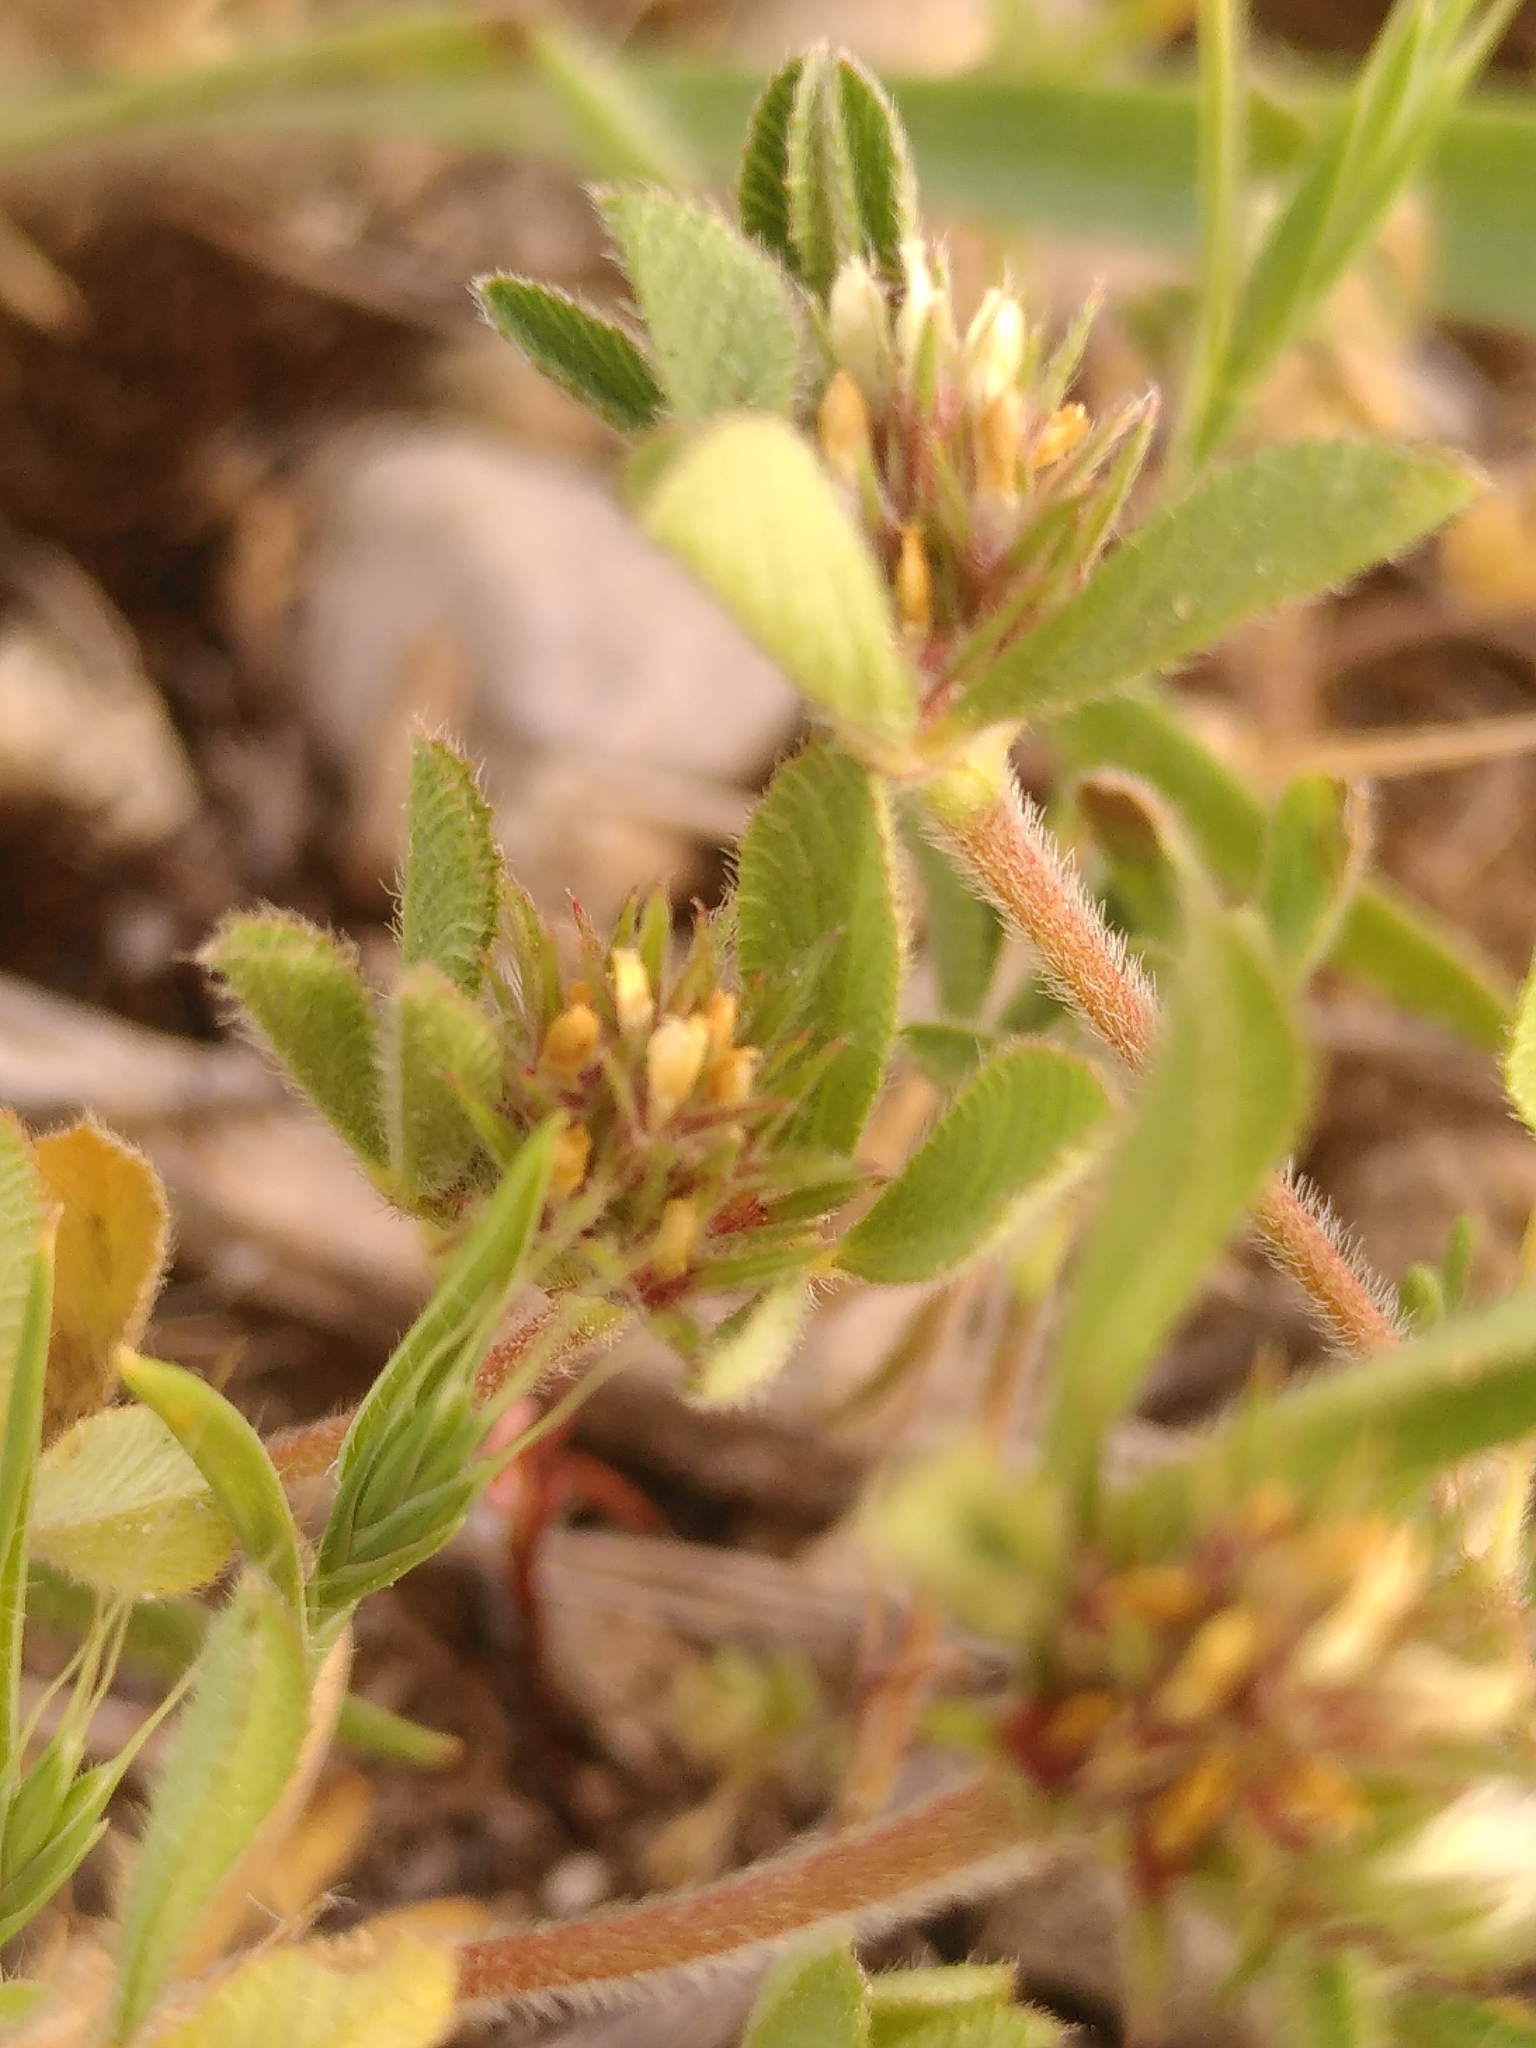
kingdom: Plantae
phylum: Tracheophyta
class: Magnoliopsida
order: Fabales
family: Fabaceae
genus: Trifolium
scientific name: Trifolium scabrum
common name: Rough clover
